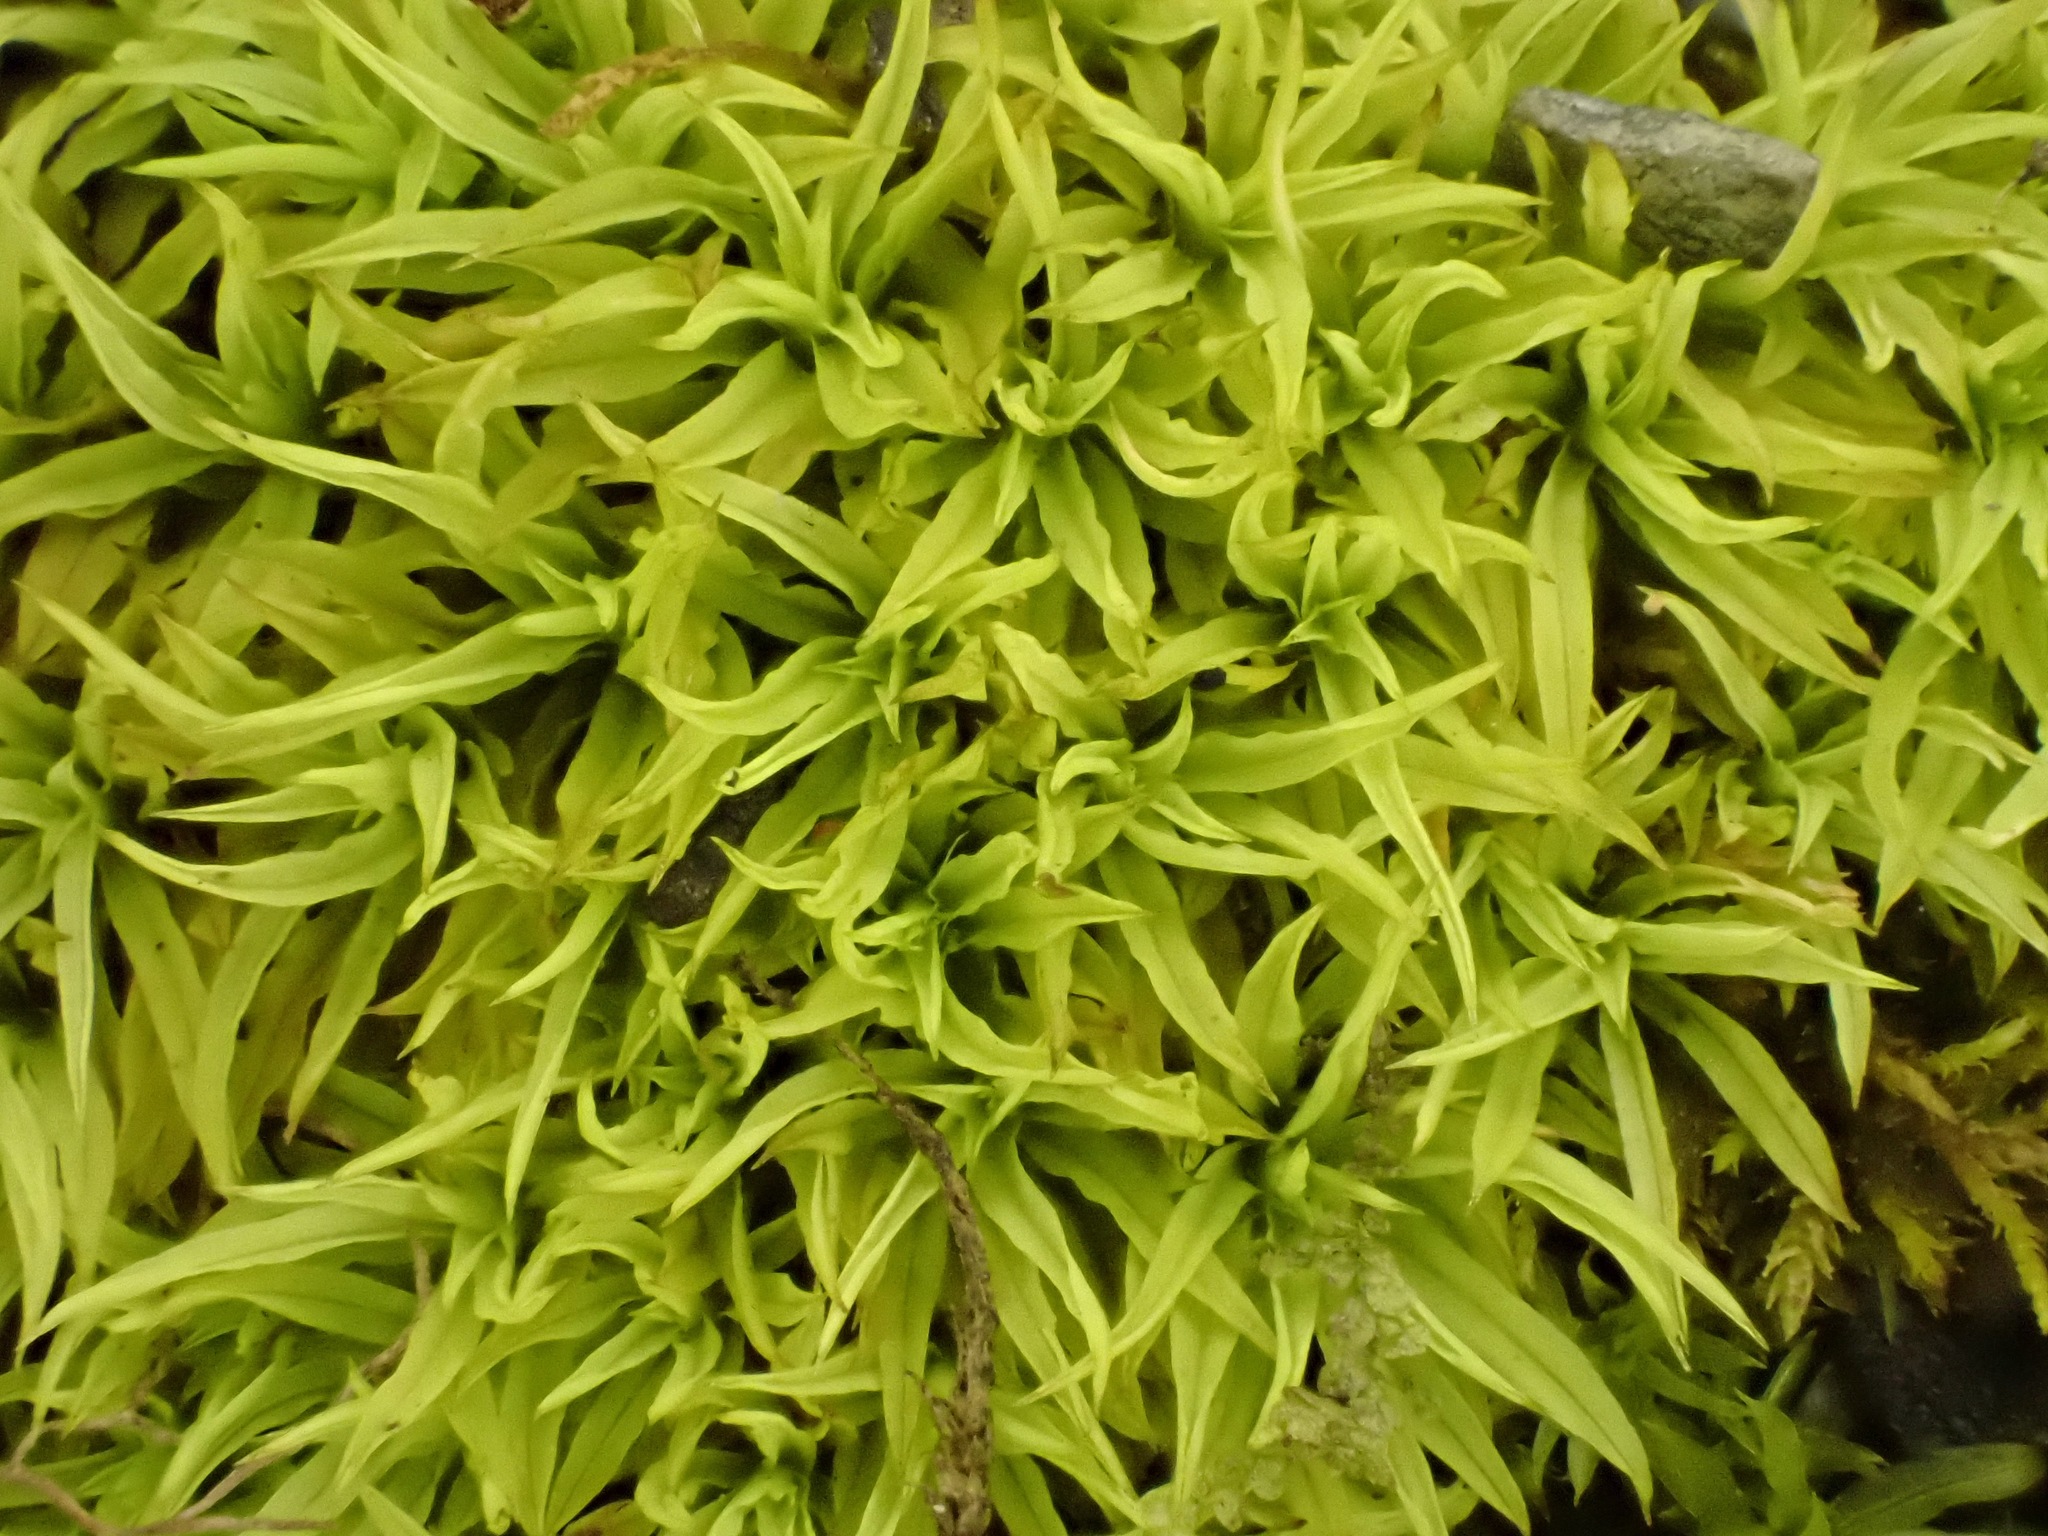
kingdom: Plantae
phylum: Bryophyta
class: Bryopsida
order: Pottiales
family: Pottiaceae
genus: Trichostomum
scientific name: Trichostomum brachydontium
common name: Variable crisp-moss
